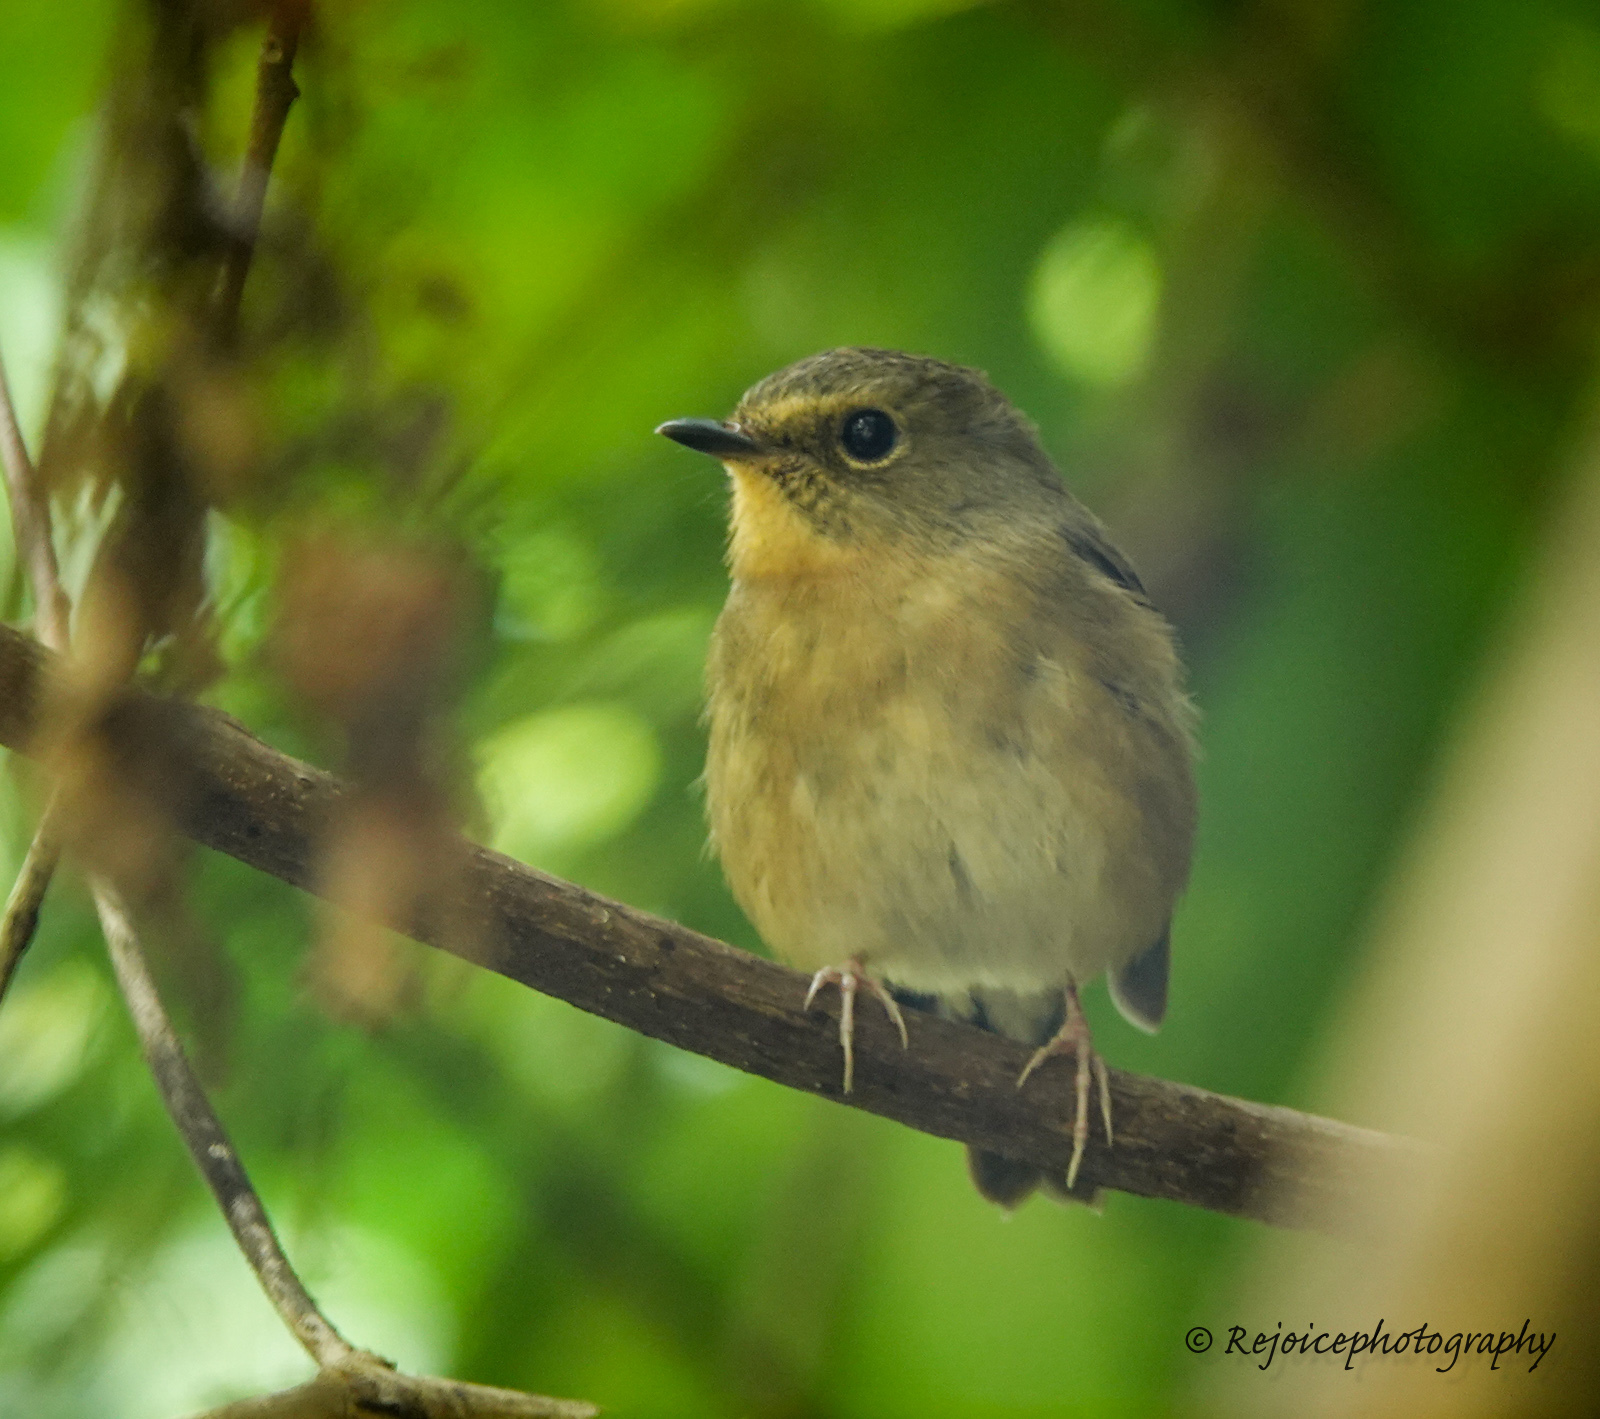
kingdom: Animalia
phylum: Chordata
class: Aves
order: Passeriformes
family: Muscicapidae
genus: Ficedula
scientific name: Ficedula hyperythra
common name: Snowy-browed flycatcher
